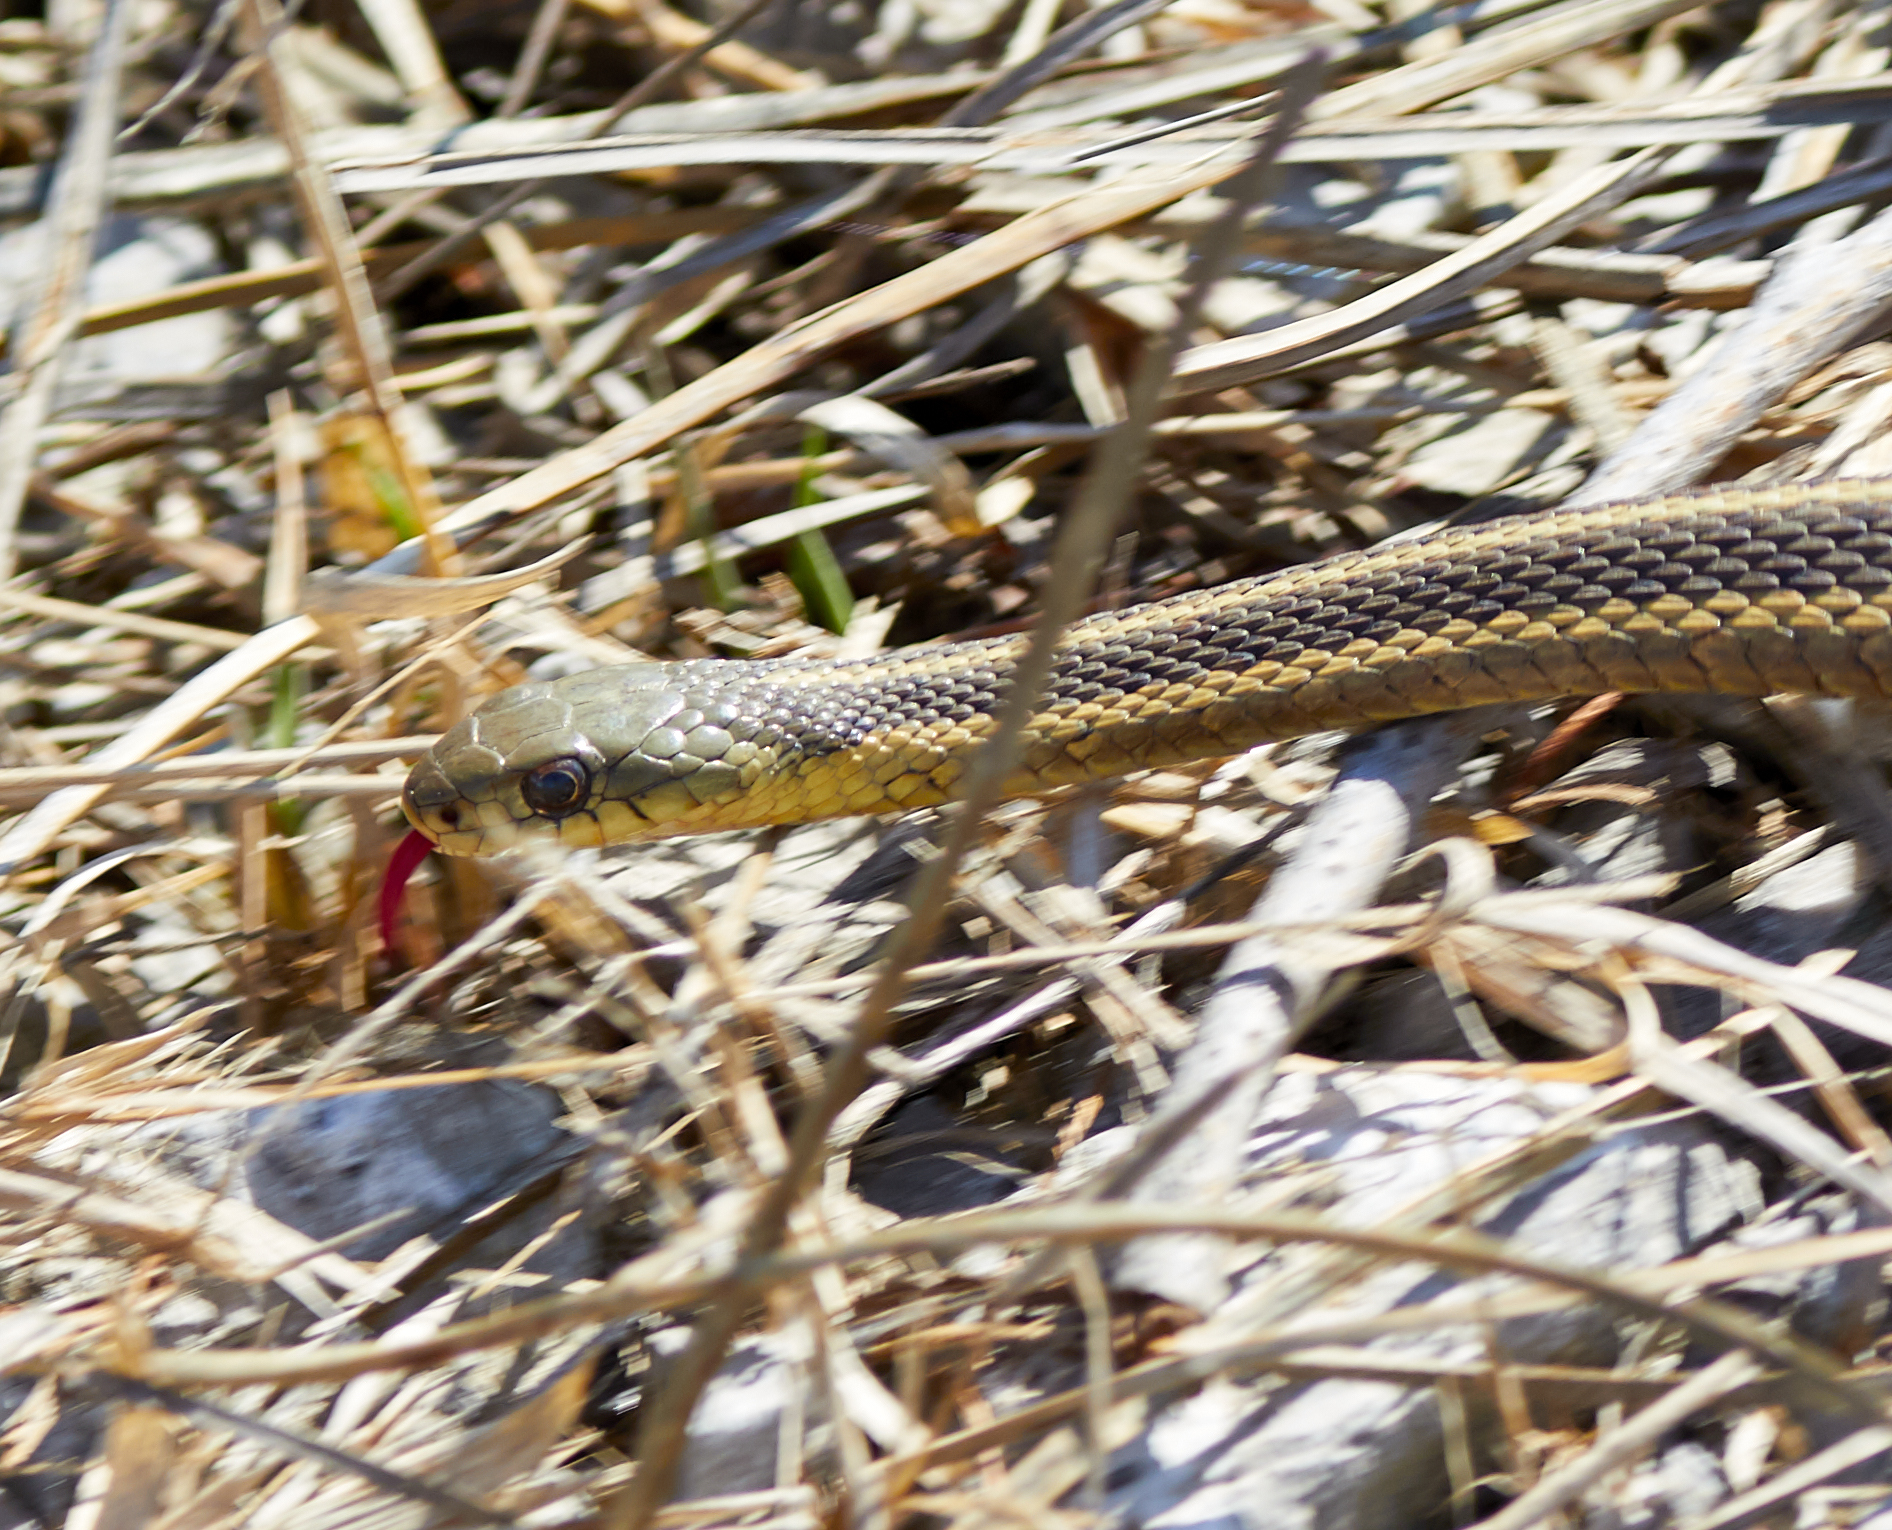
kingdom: Animalia
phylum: Chordata
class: Squamata
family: Colubridae
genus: Thamnophis
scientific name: Thamnophis sirtalis
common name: Common garter snake
